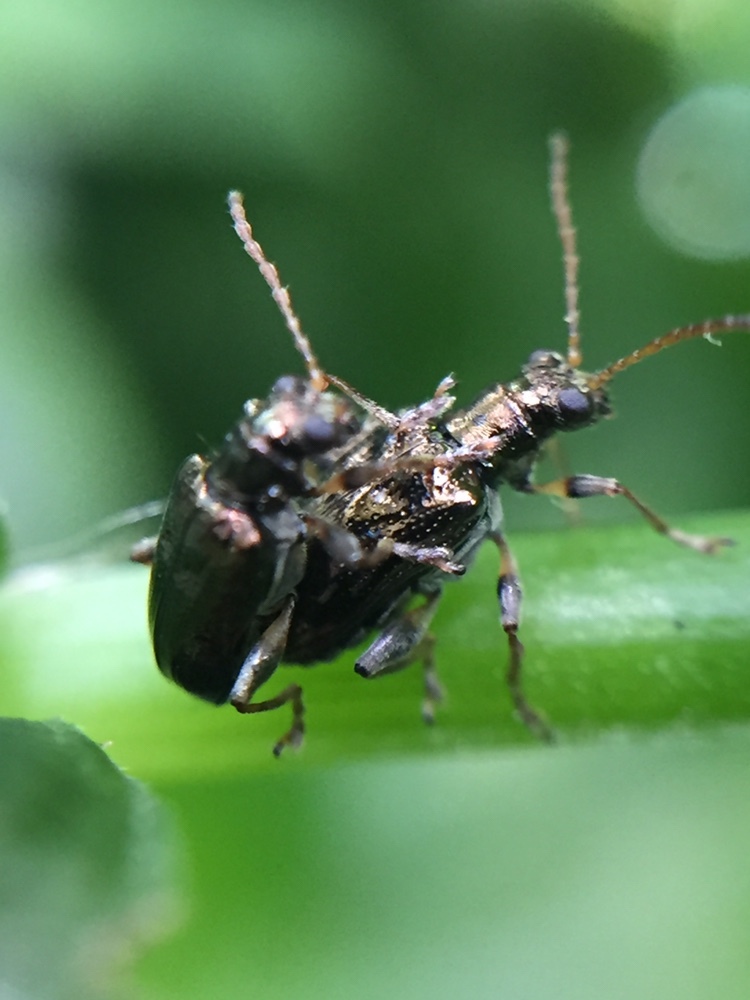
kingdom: Animalia
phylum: Arthropoda
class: Insecta
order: Coleoptera
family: Chrysomelidae
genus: Neolema
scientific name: Neolema ogloblini
